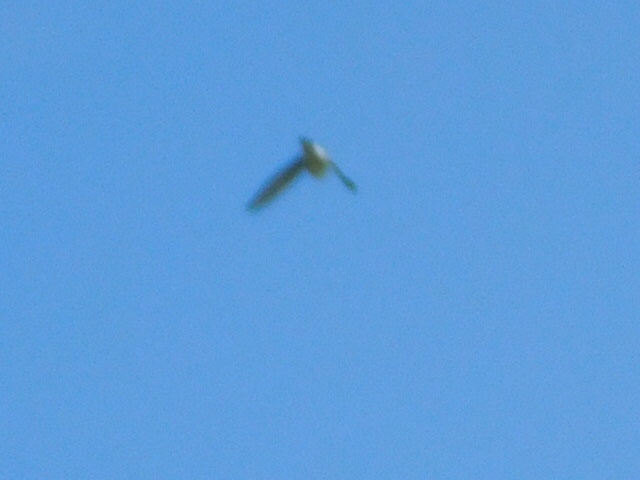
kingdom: Animalia
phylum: Chordata
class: Aves
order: Passeriformes
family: Hirundinidae
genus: Tachycineta
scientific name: Tachycineta bicolor
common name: Tree swallow
